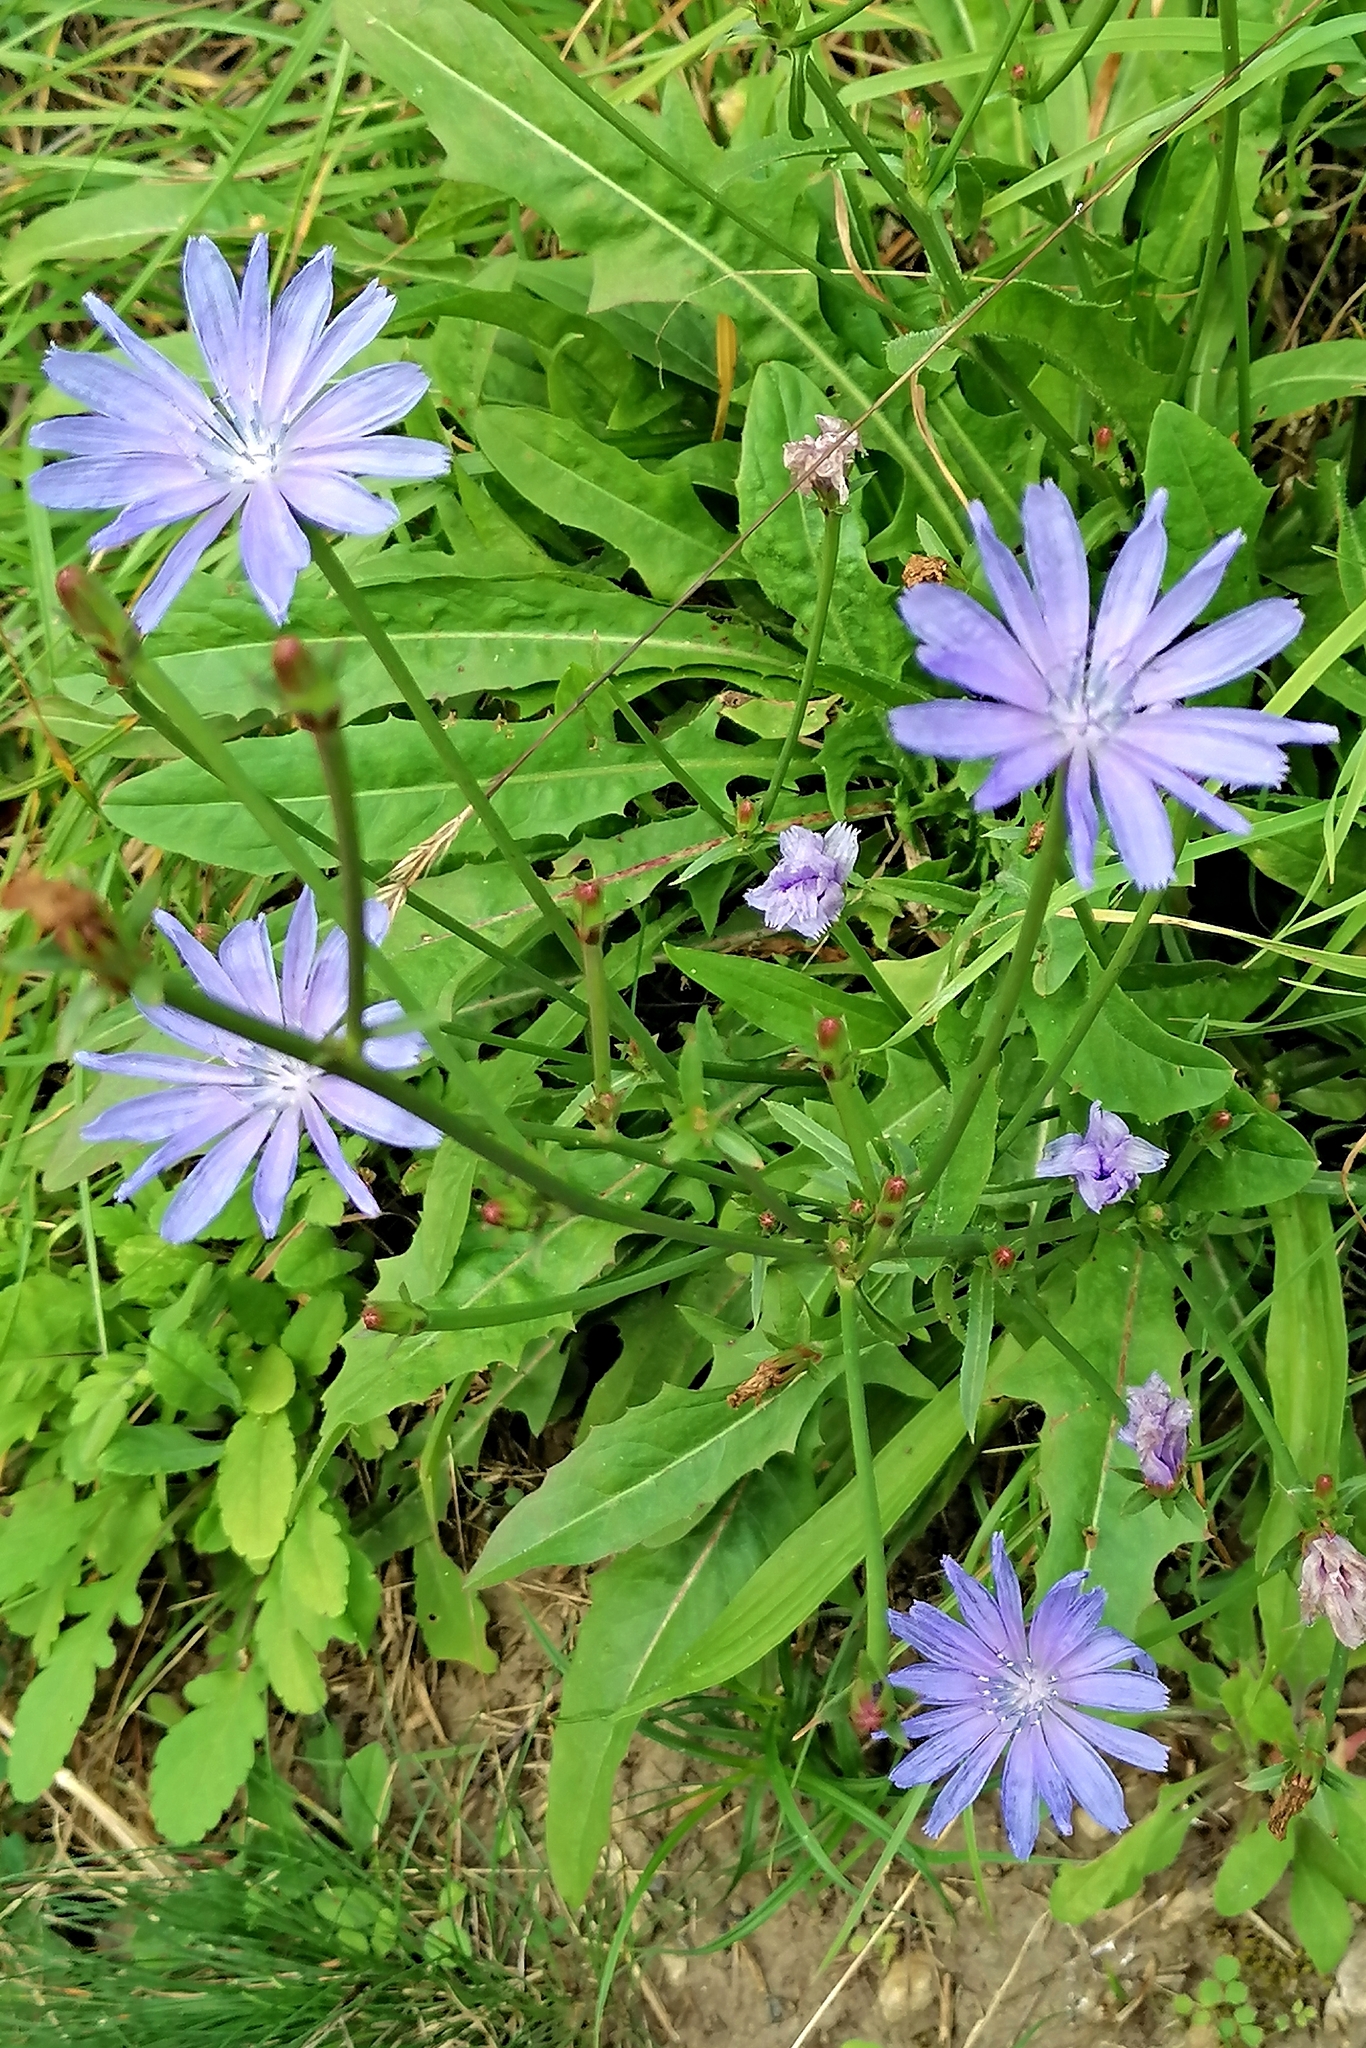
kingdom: Plantae
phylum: Tracheophyta
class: Magnoliopsida
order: Asterales
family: Asteraceae
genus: Cichorium
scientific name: Cichorium intybus
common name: Chicory
